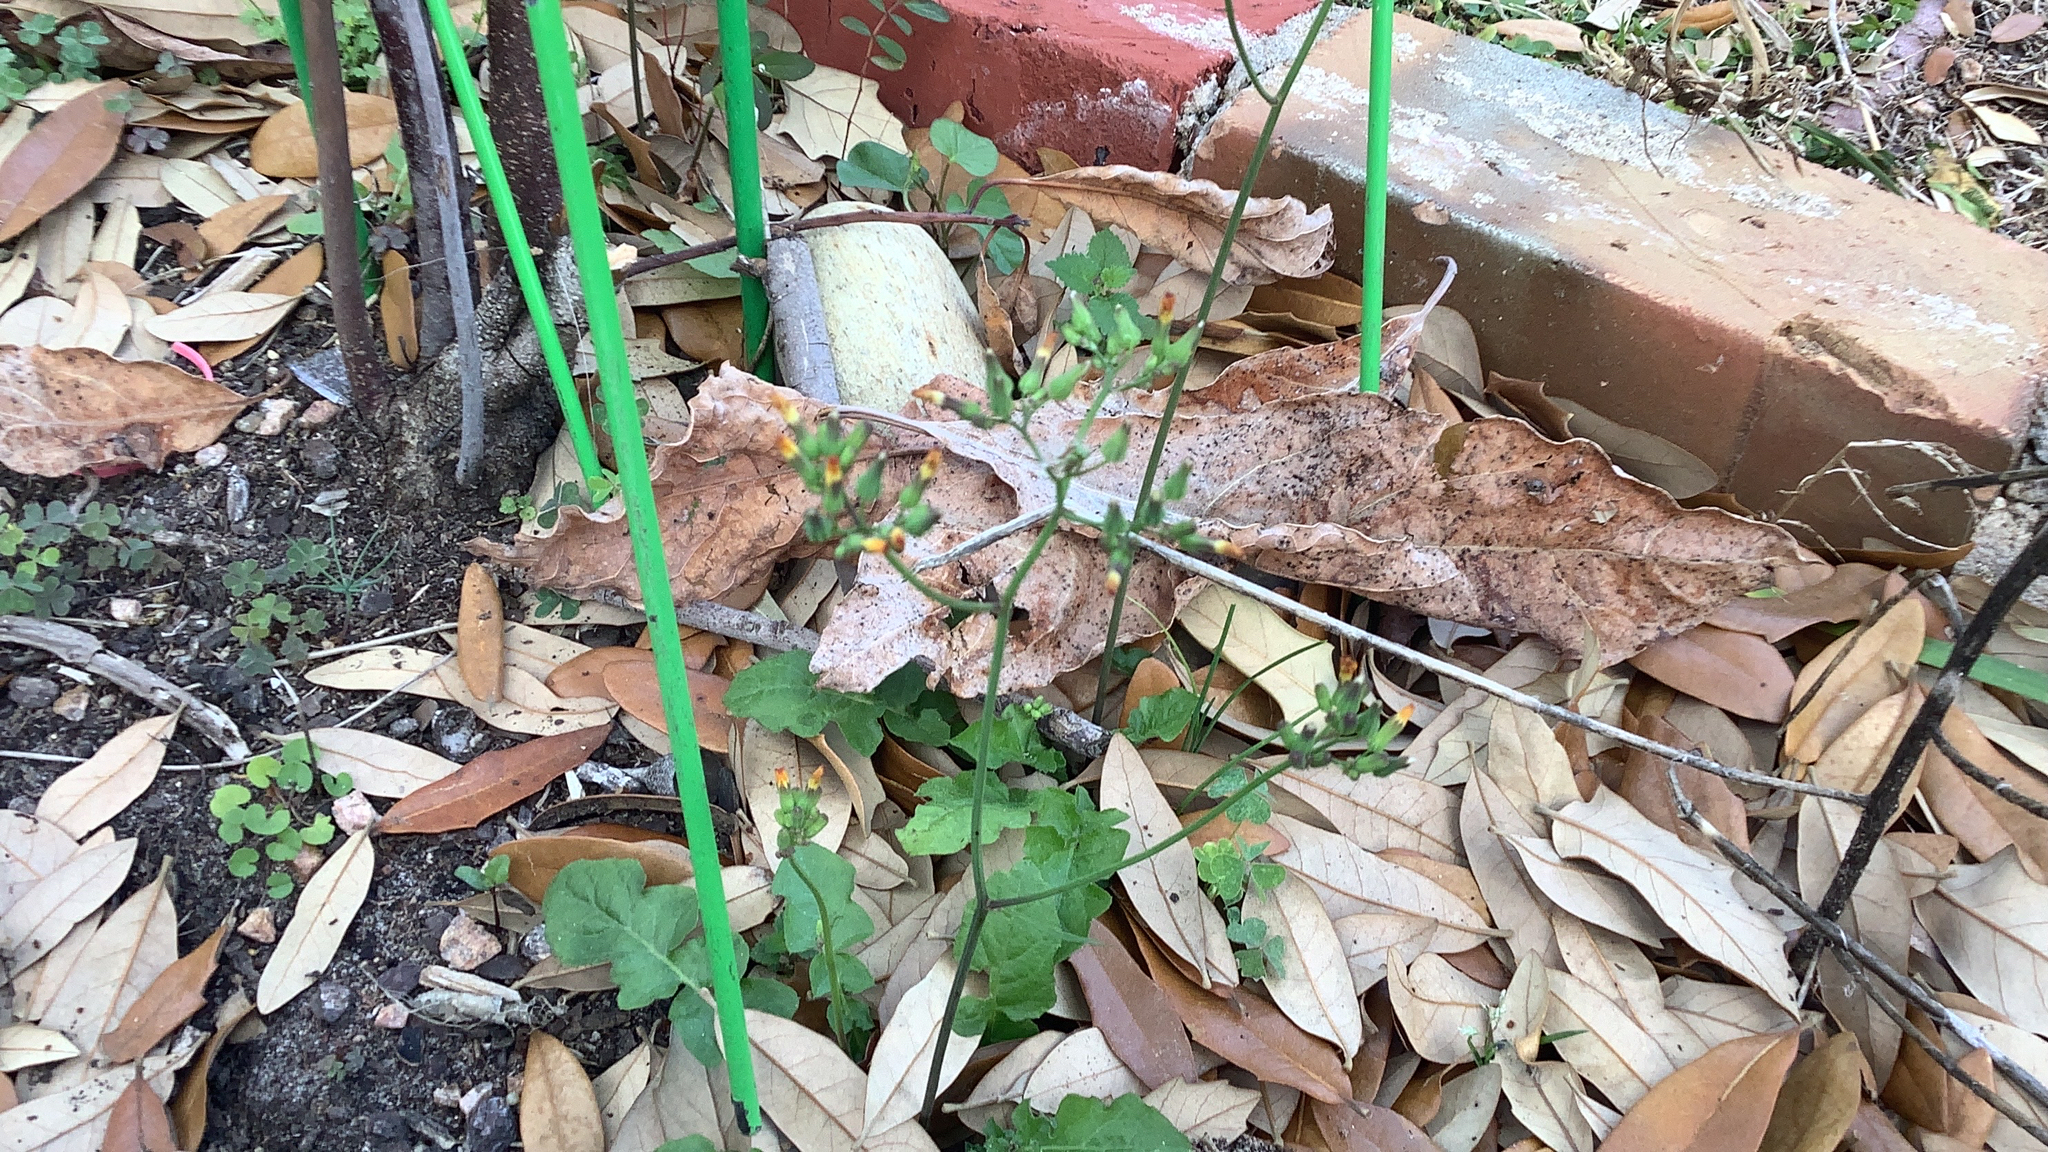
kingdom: Plantae
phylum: Tracheophyta
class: Magnoliopsida
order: Asterales
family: Asteraceae
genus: Youngia
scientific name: Youngia japonica
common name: Oriental false hawksbeard
